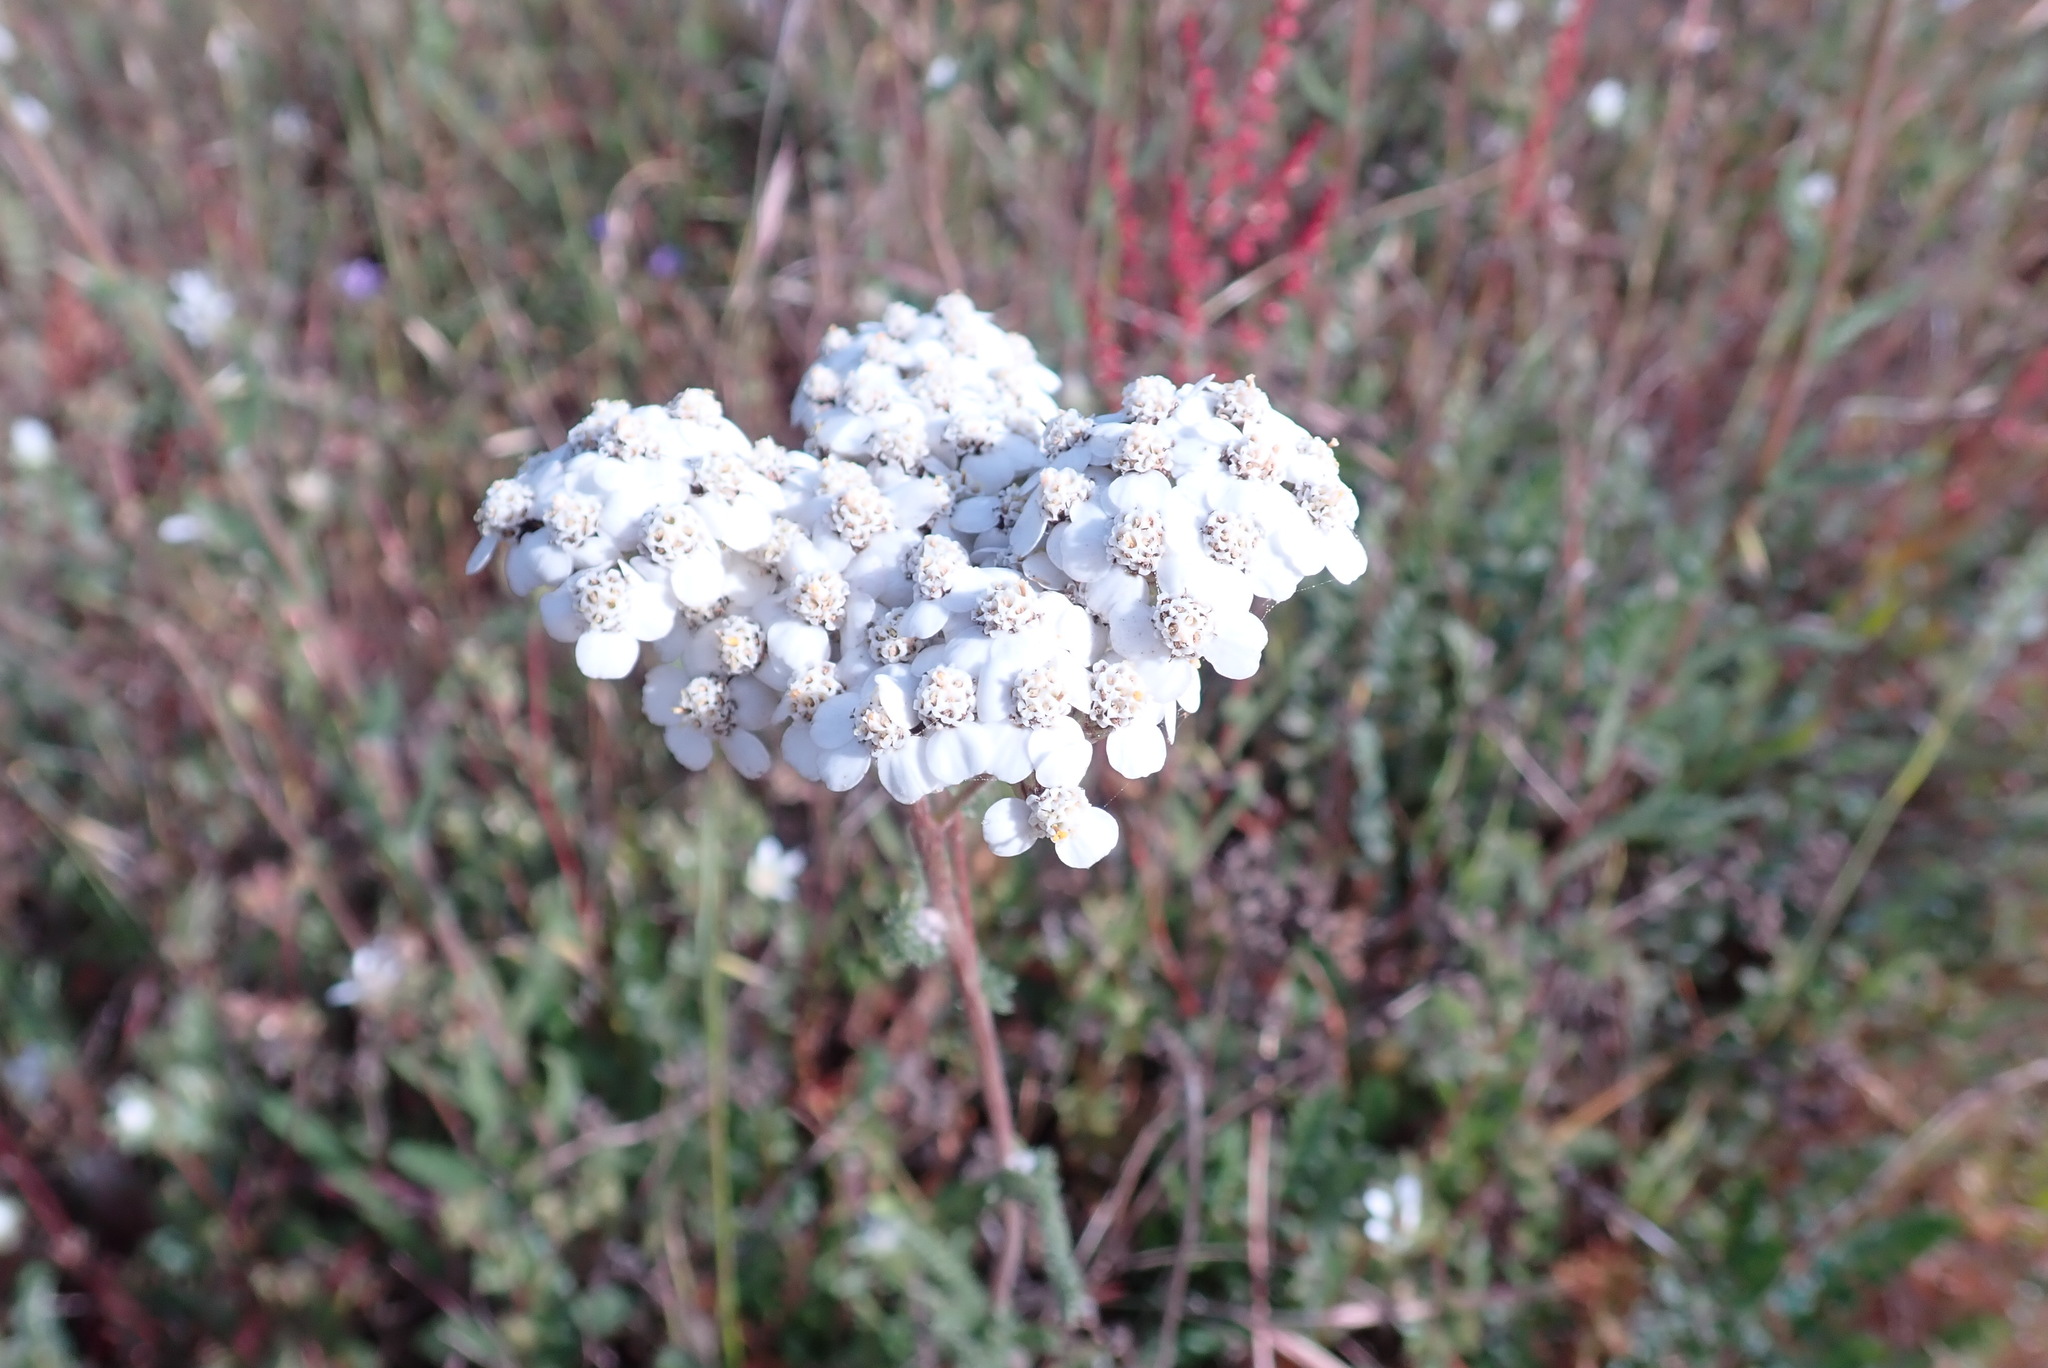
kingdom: Plantae
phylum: Tracheophyta
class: Magnoliopsida
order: Asterales
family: Asteraceae
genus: Achillea
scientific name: Achillea millefolium
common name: Yarrow
